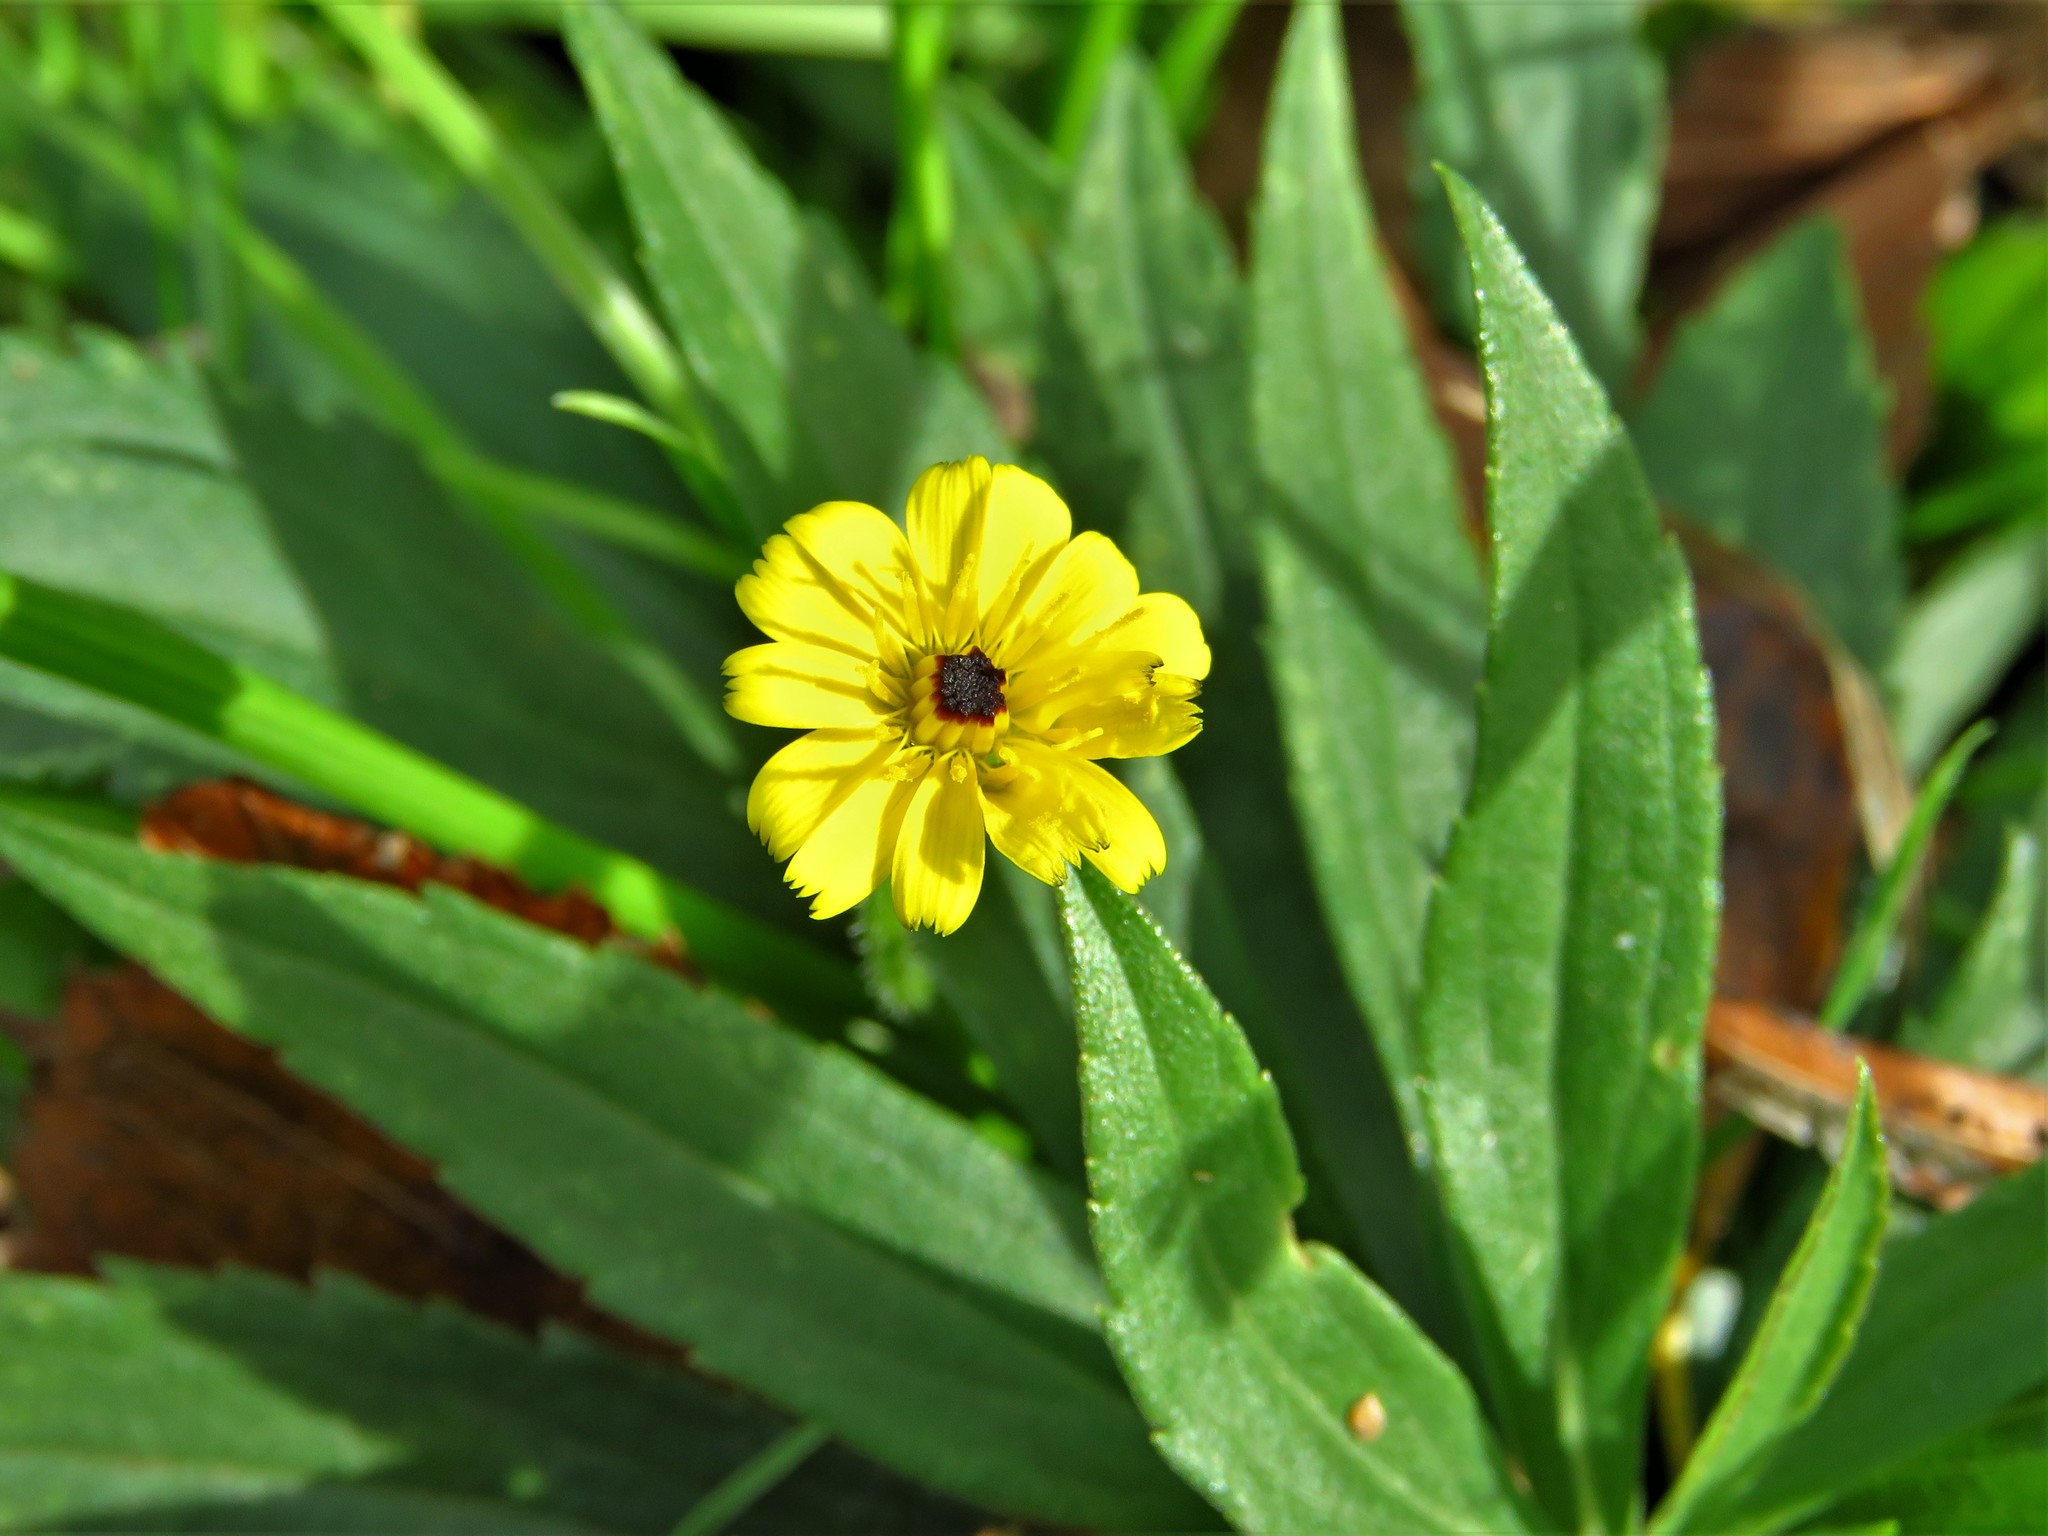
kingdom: Plantae
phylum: Tracheophyta
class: Magnoliopsida
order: Asterales
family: Asteraceae
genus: Hedypnois
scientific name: Hedypnois rhagadioloides
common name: Cretan weed
